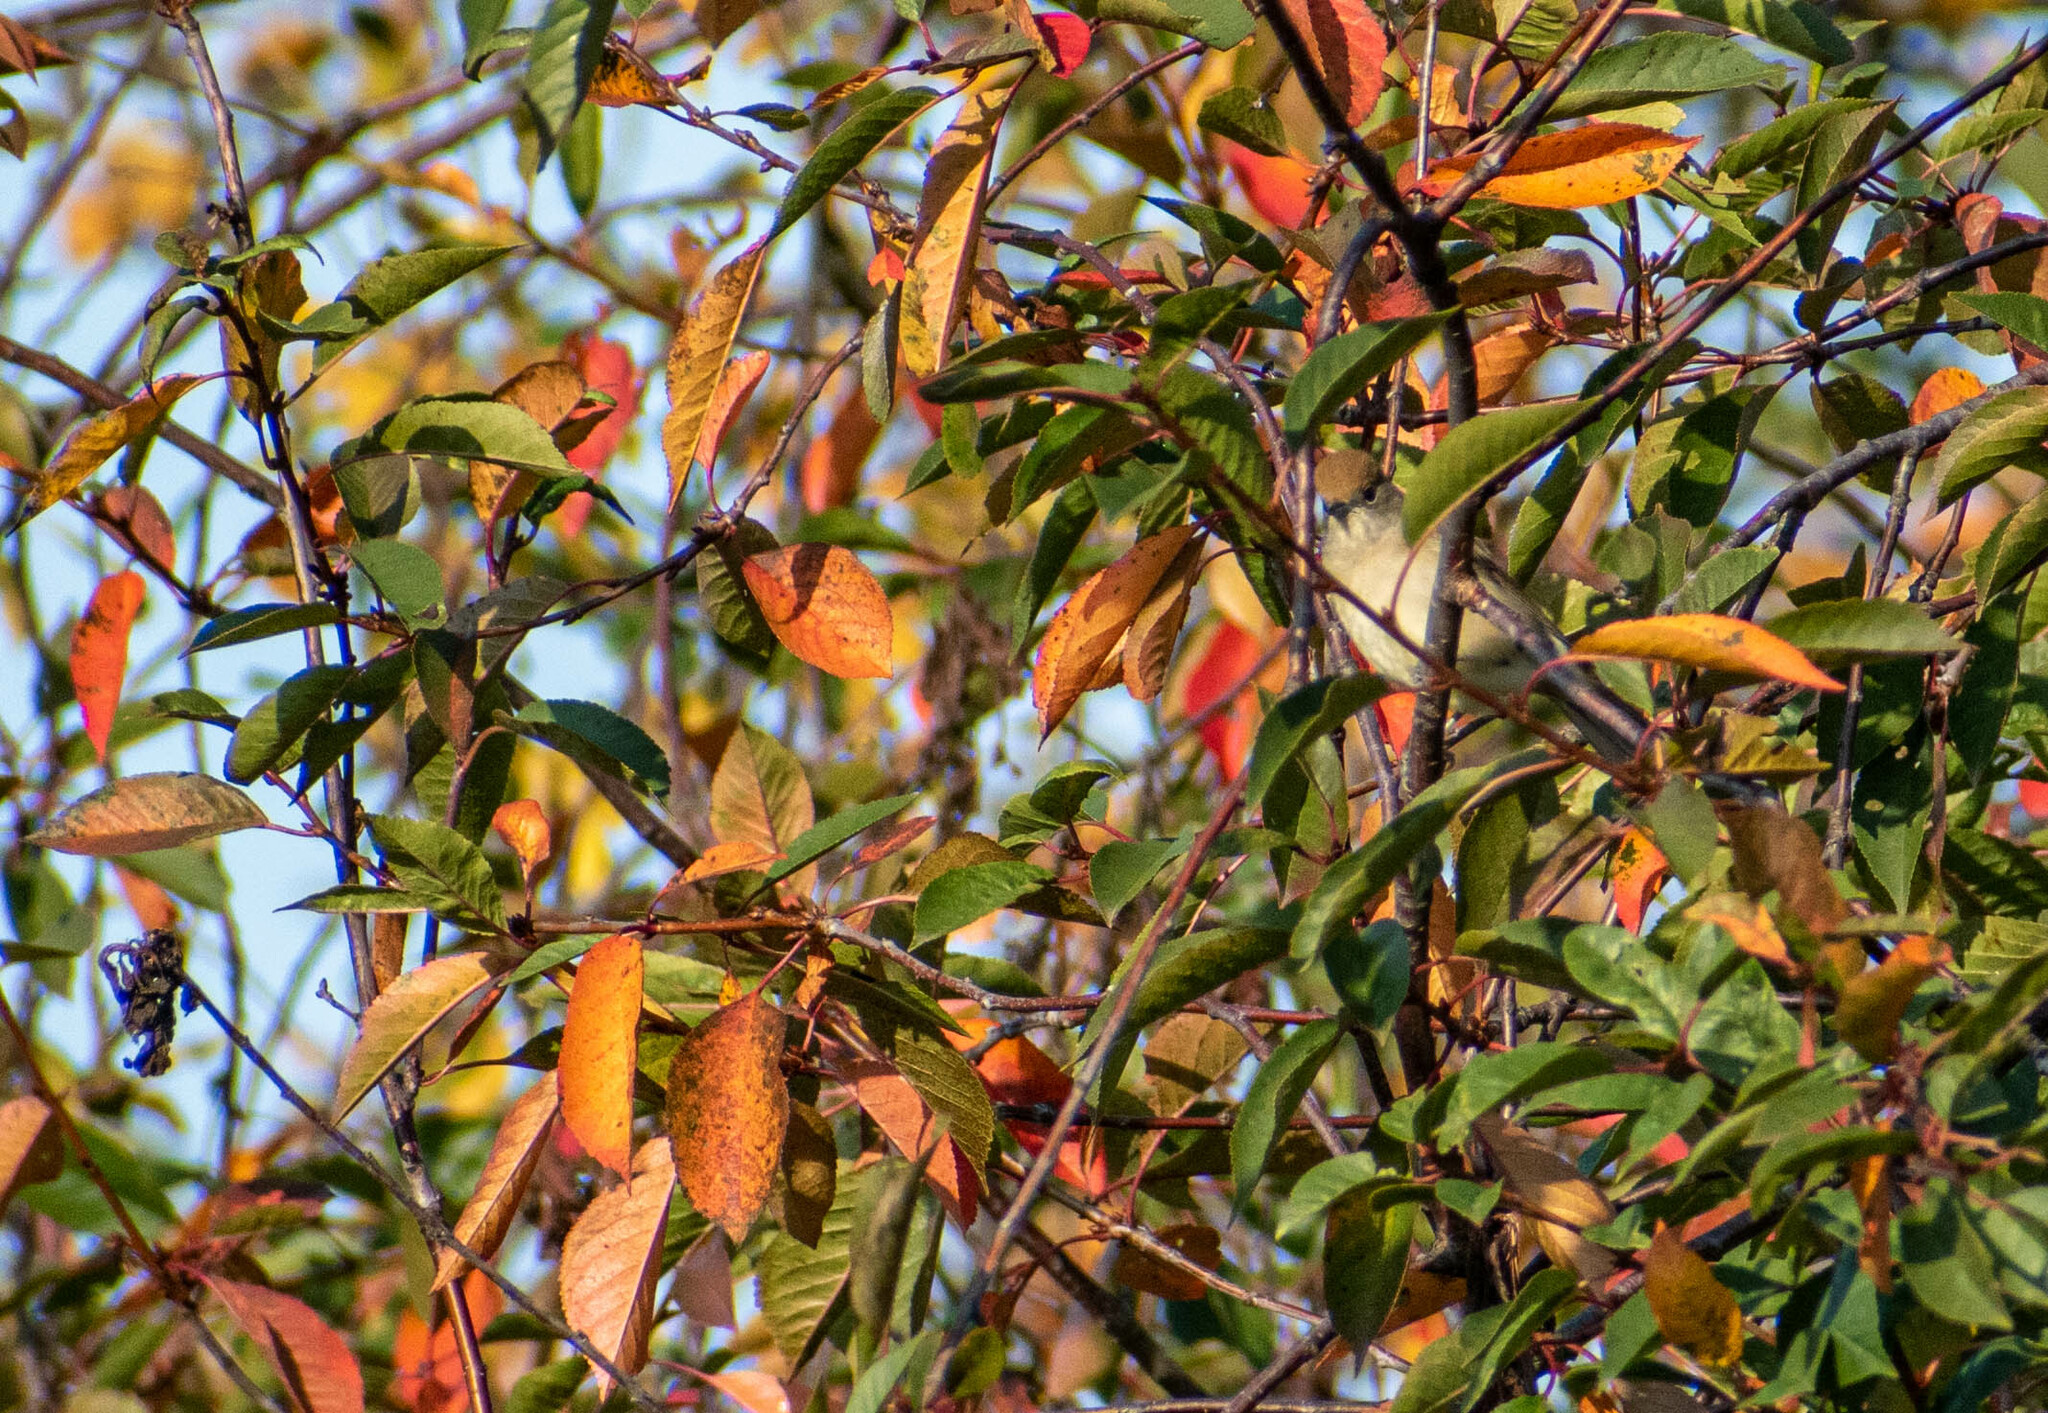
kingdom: Animalia
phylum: Chordata
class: Aves
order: Passeriformes
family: Sylviidae
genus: Sylvia
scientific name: Sylvia atricapilla
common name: Eurasian blackcap
